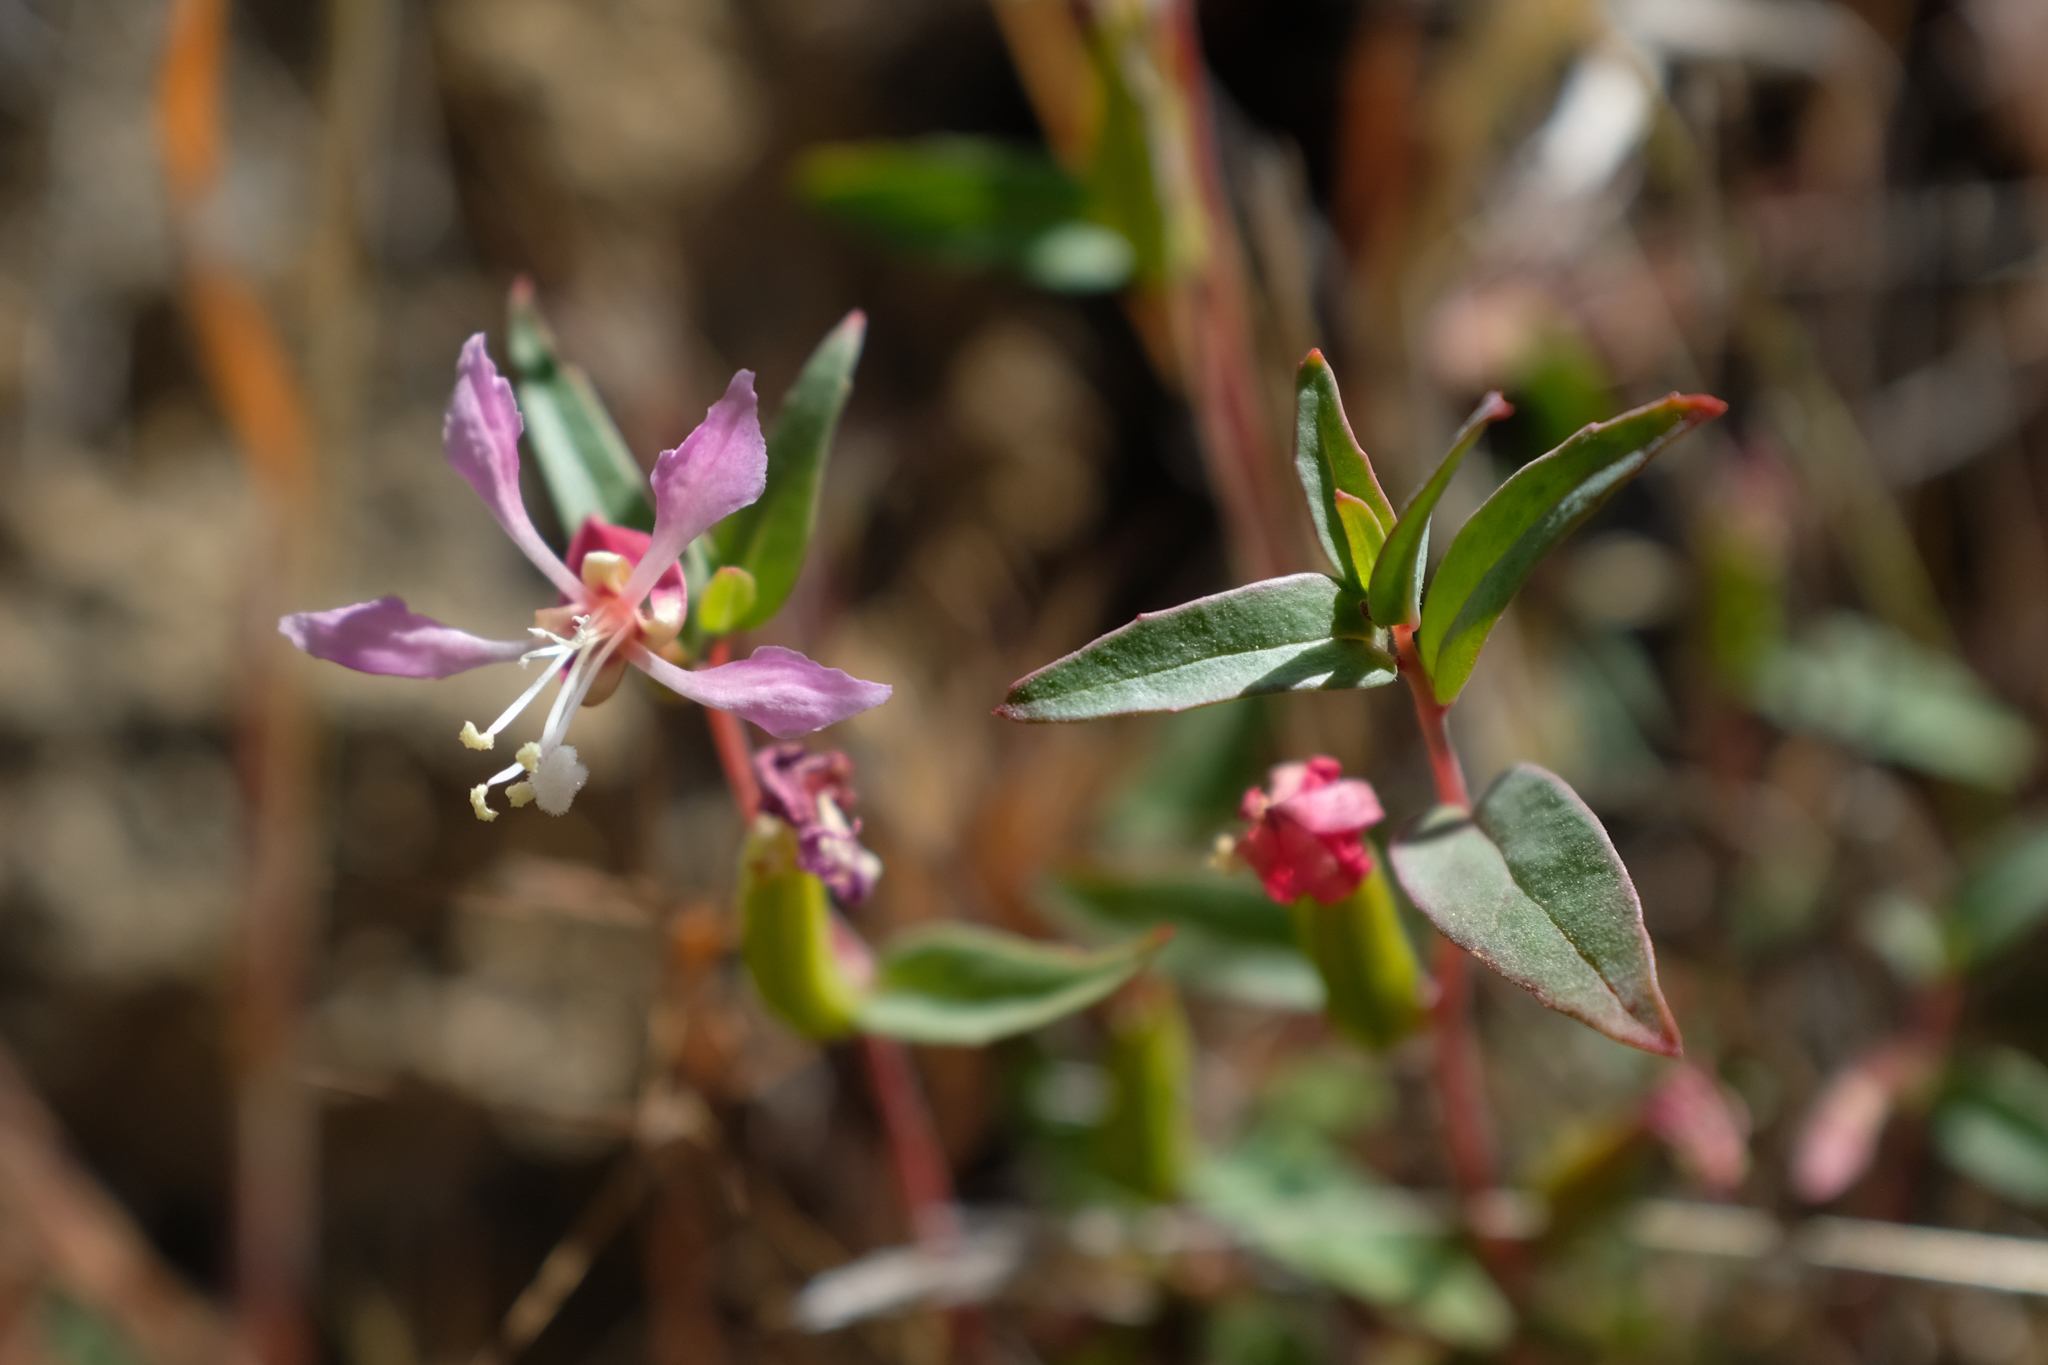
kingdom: Plantae
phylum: Tracheophyta
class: Magnoliopsida
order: Myrtales
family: Onagraceae
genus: Clarkia
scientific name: Clarkia tembloriensis
